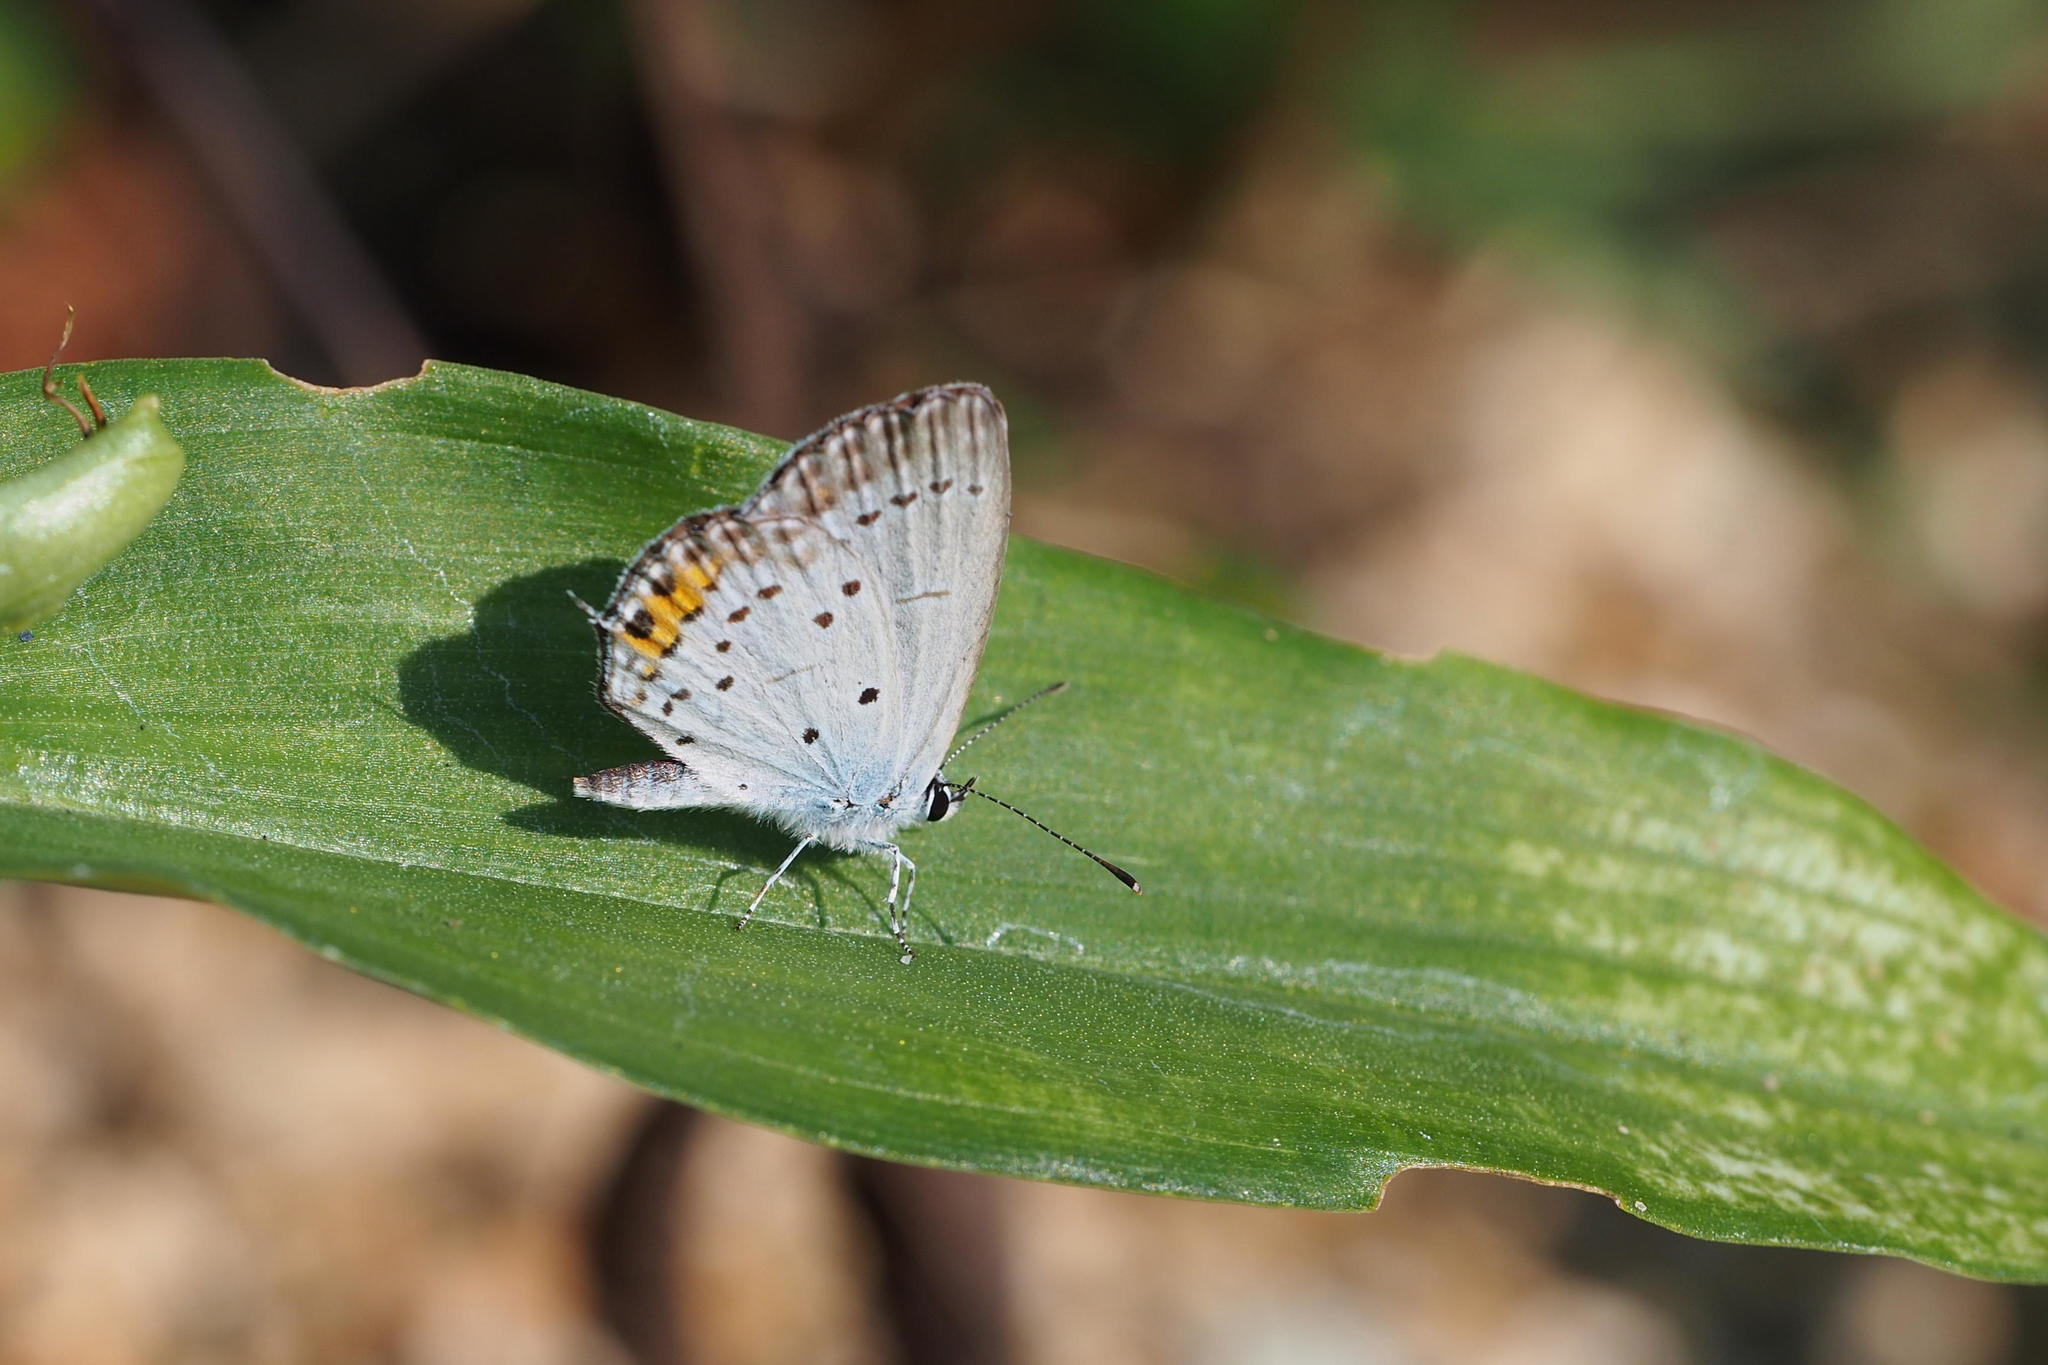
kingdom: Animalia
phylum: Arthropoda
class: Insecta
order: Lepidoptera
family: Lycaenidae
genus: Elkalyce
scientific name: Elkalyce argiades
